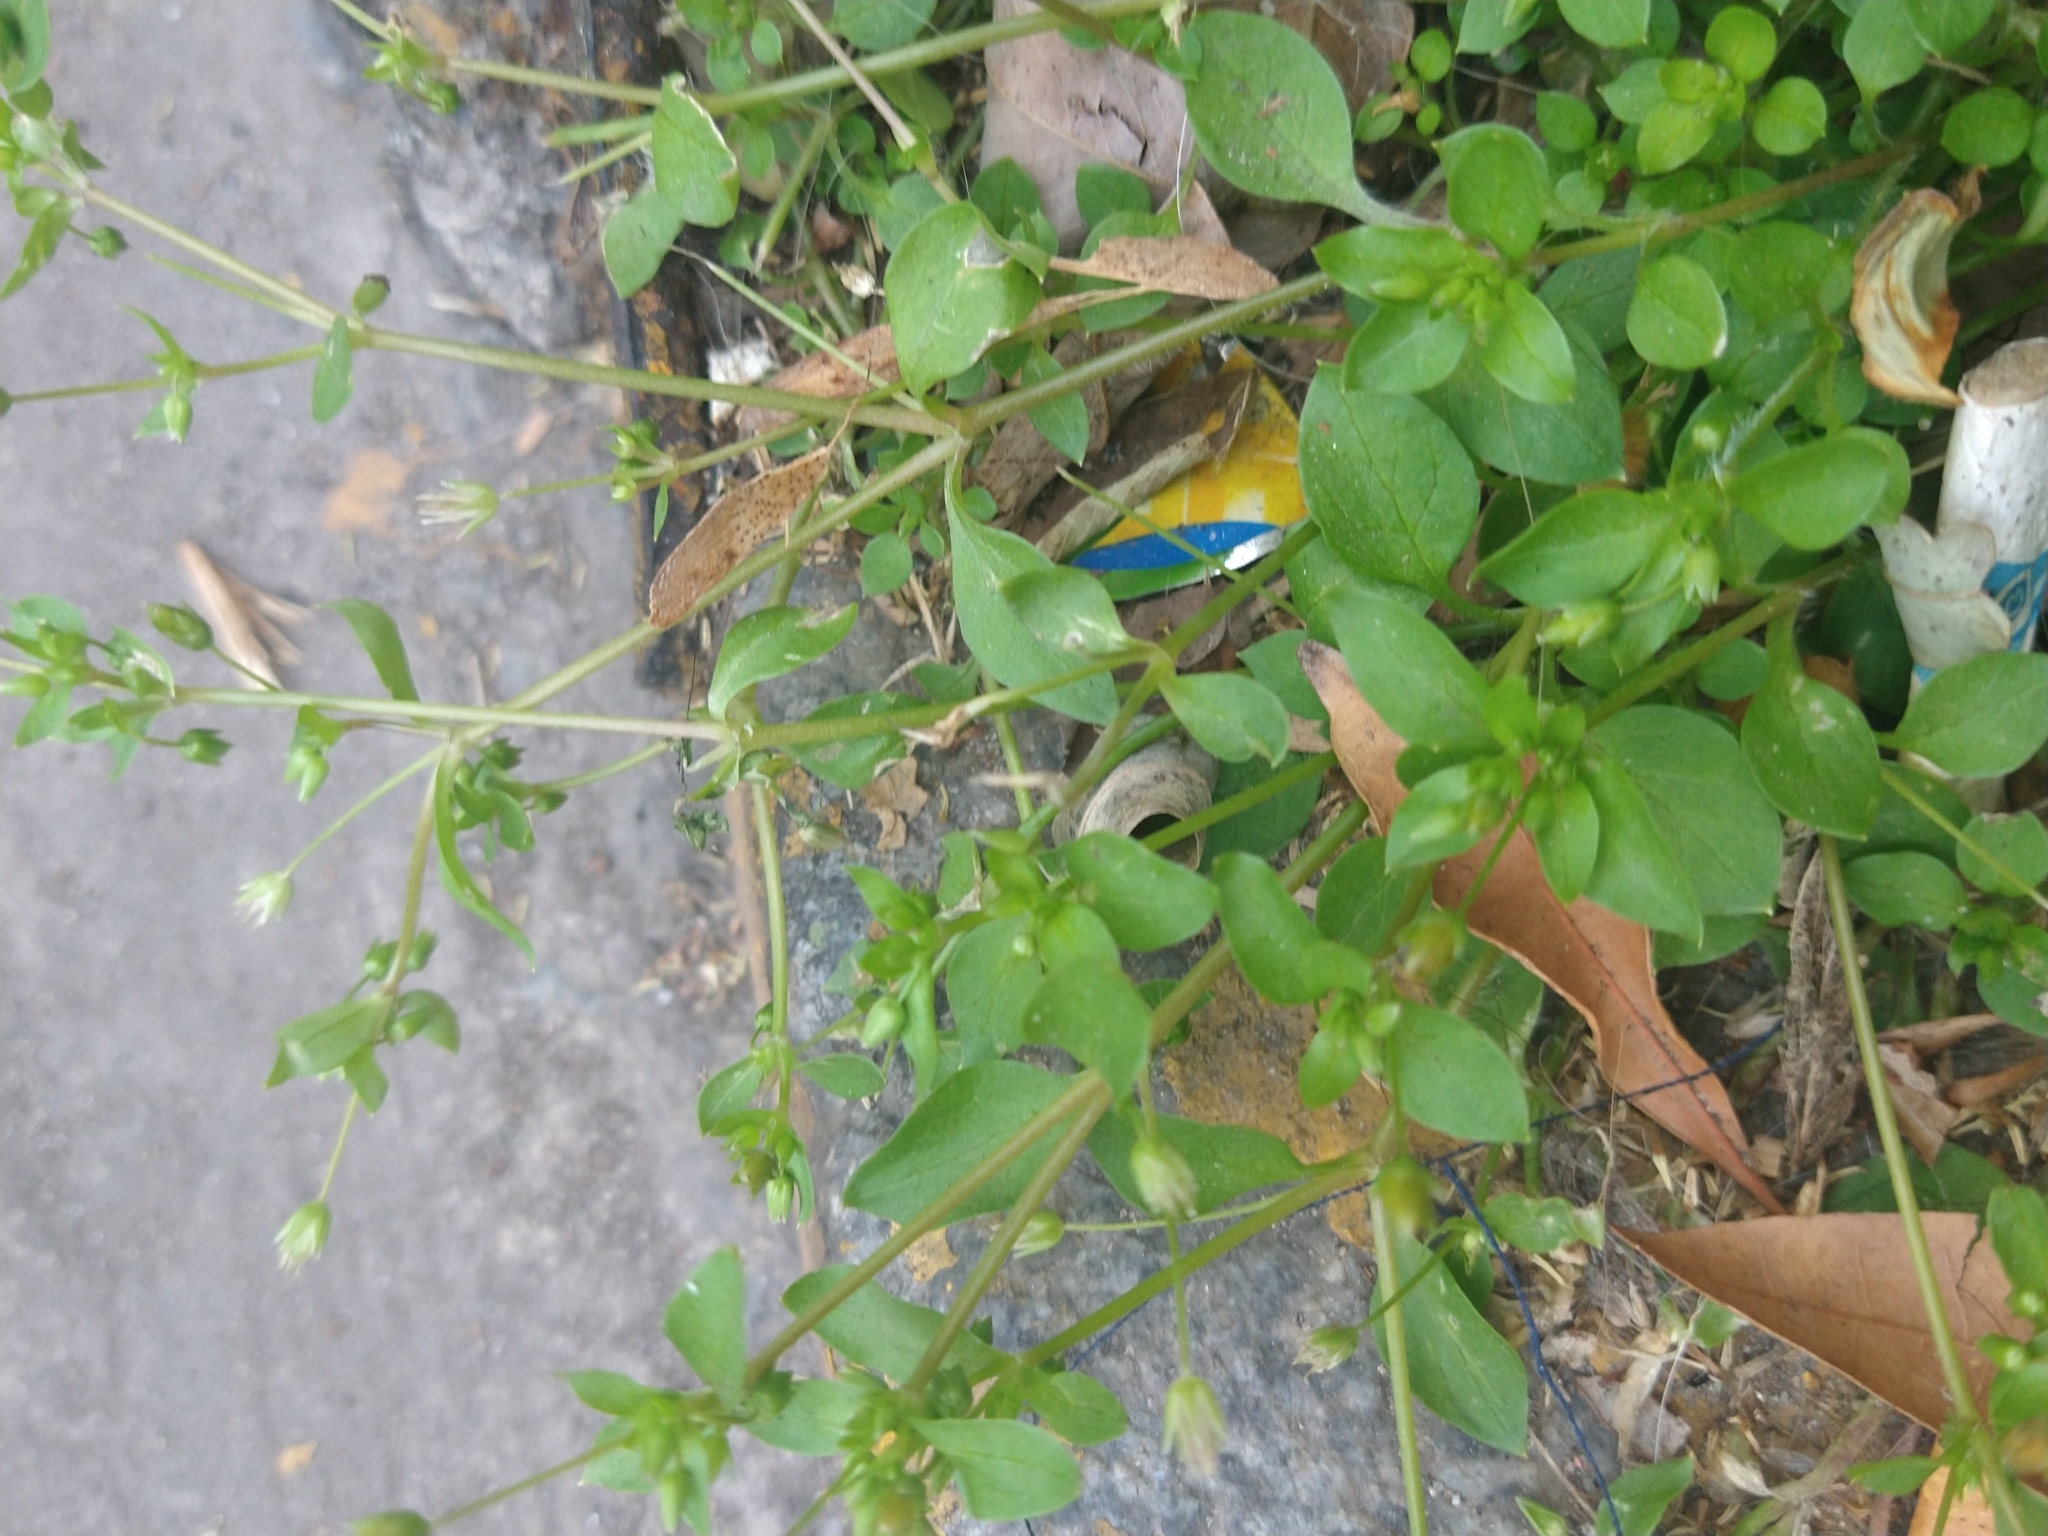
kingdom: Plantae
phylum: Tracheophyta
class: Magnoliopsida
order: Caryophyllales
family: Caryophyllaceae
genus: Stellaria
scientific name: Stellaria media
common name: Common chickweed
